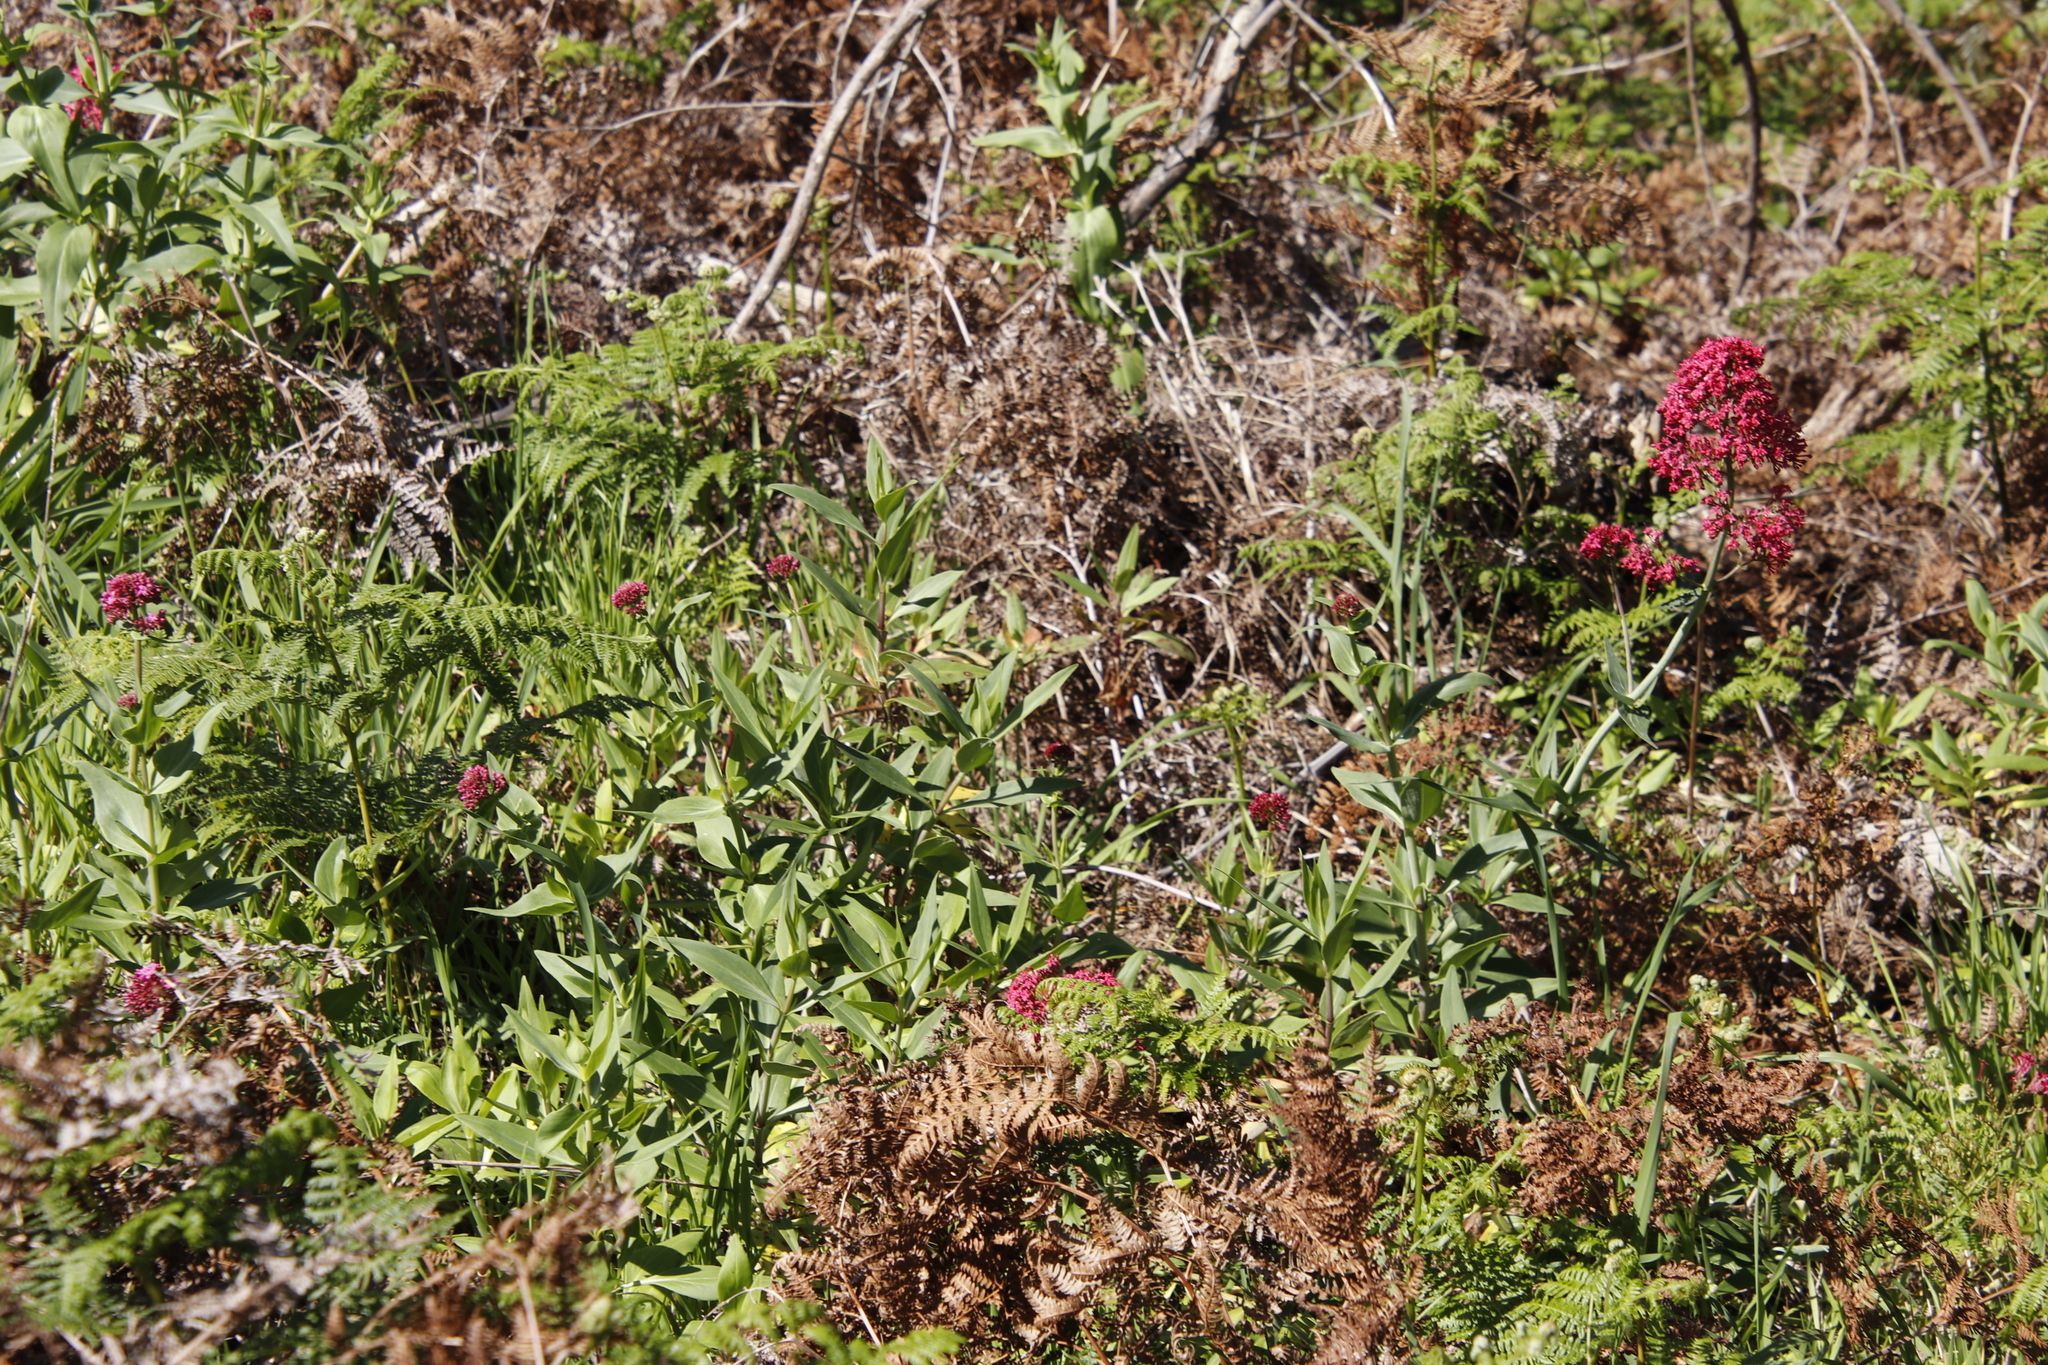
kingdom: Plantae
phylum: Tracheophyta
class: Magnoliopsida
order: Dipsacales
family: Caprifoliaceae
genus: Centranthus
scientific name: Centranthus ruber
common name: Red valerian
